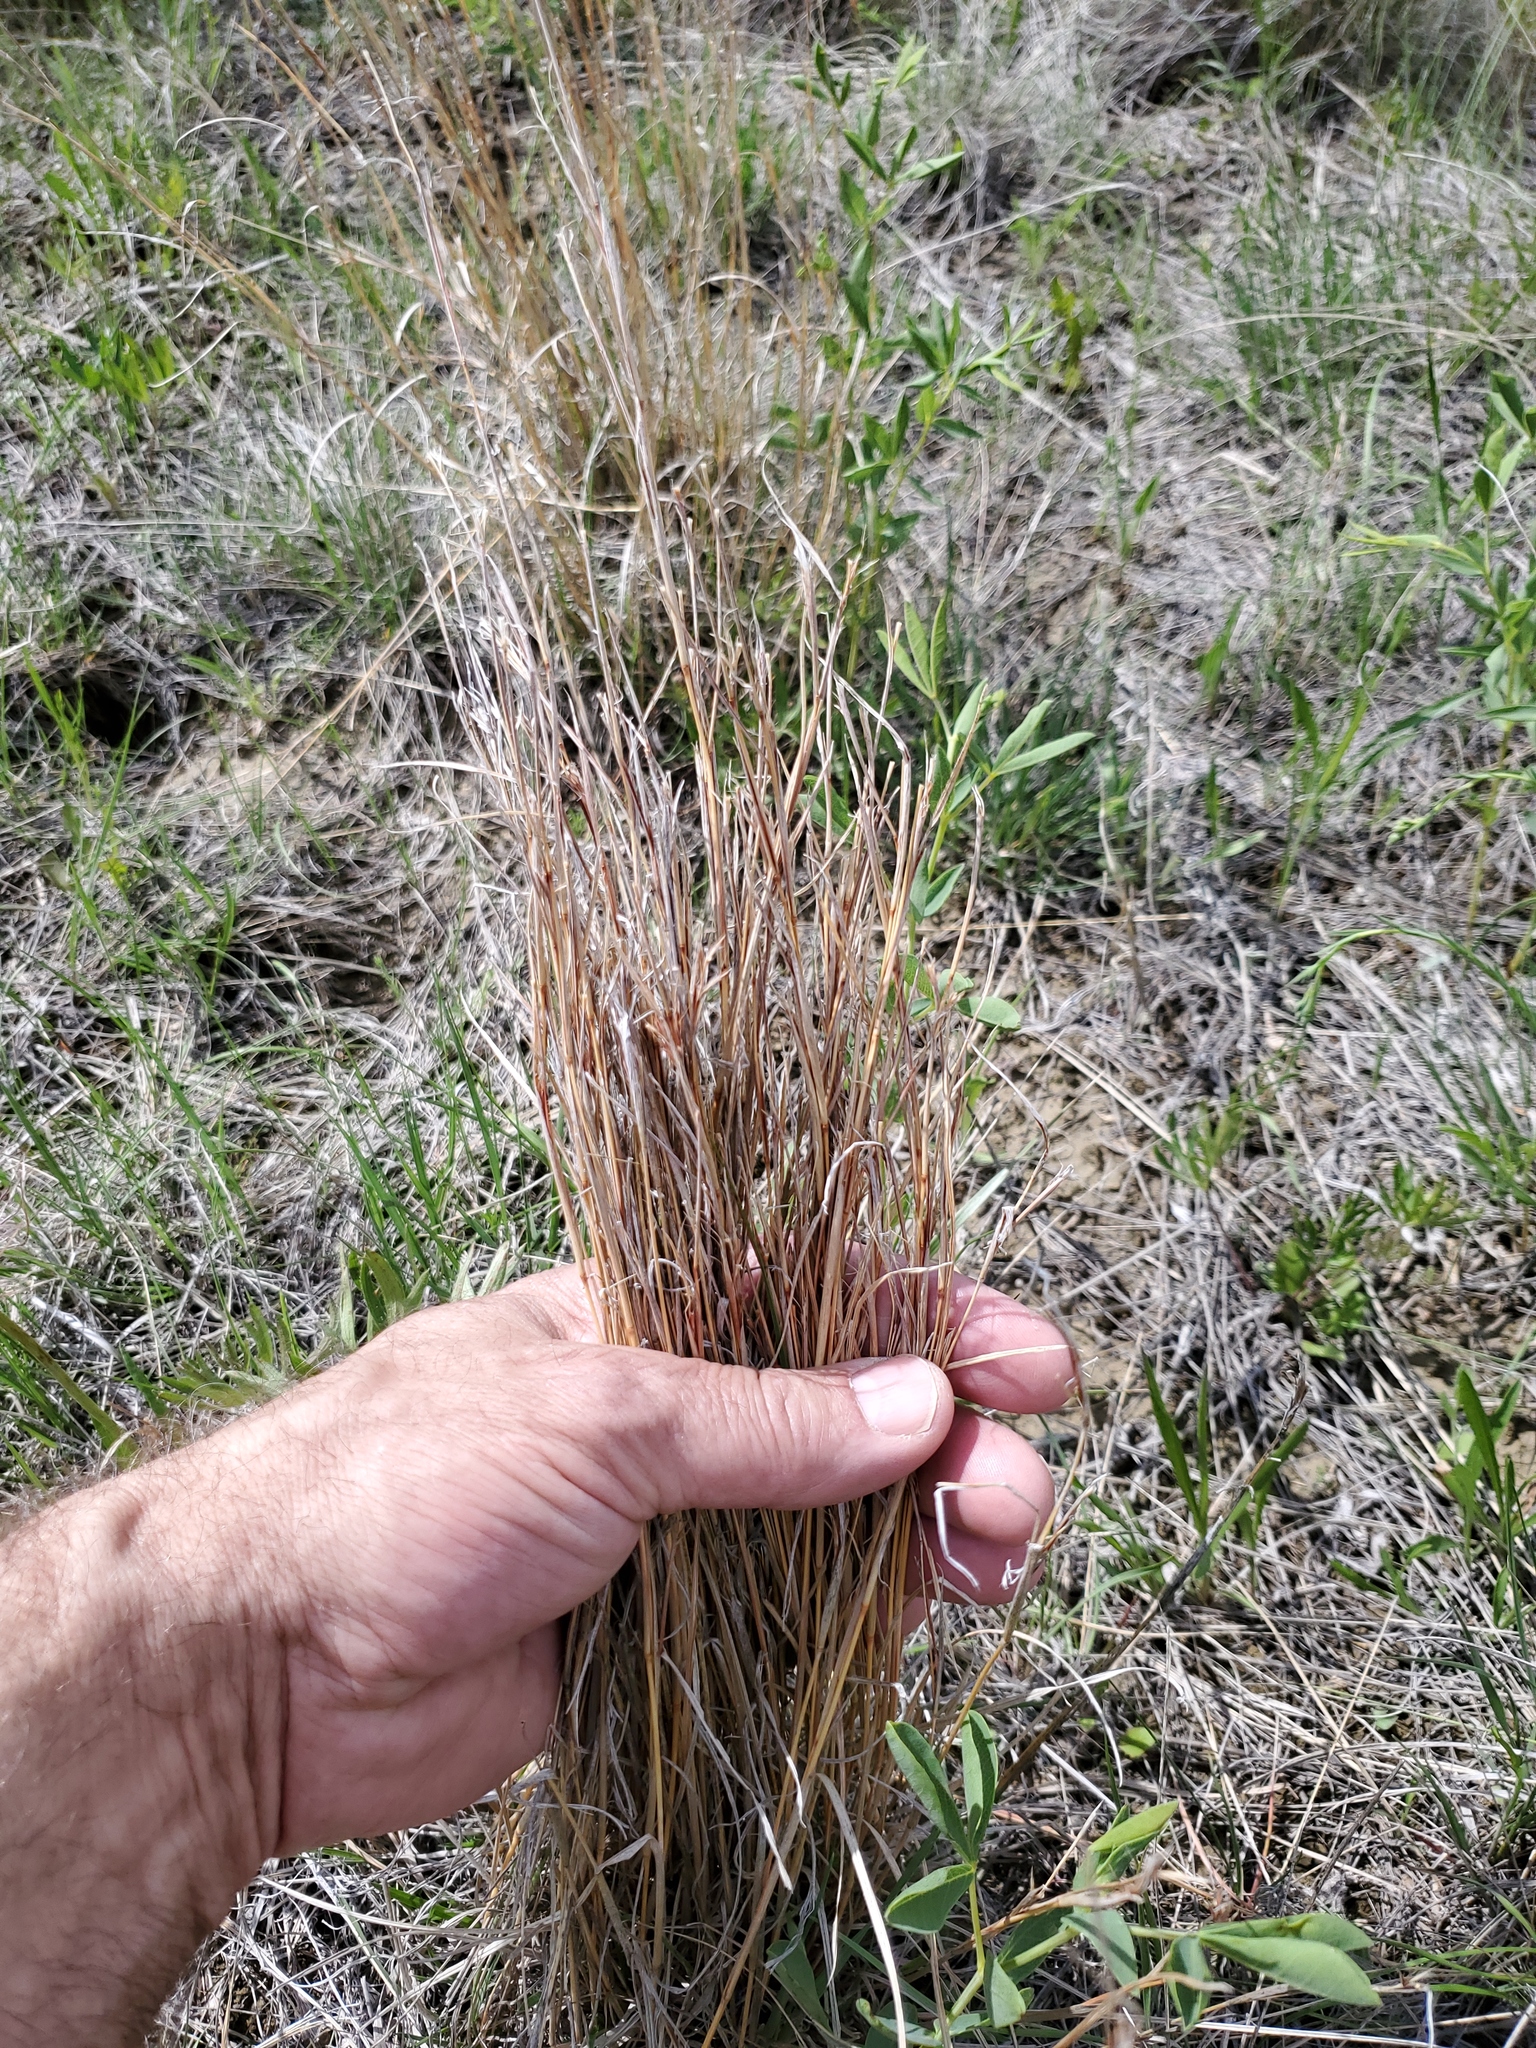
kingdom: Plantae
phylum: Tracheophyta
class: Liliopsida
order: Poales
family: Poaceae
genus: Schizachyrium
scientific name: Schizachyrium scoparium
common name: Little bluestem
